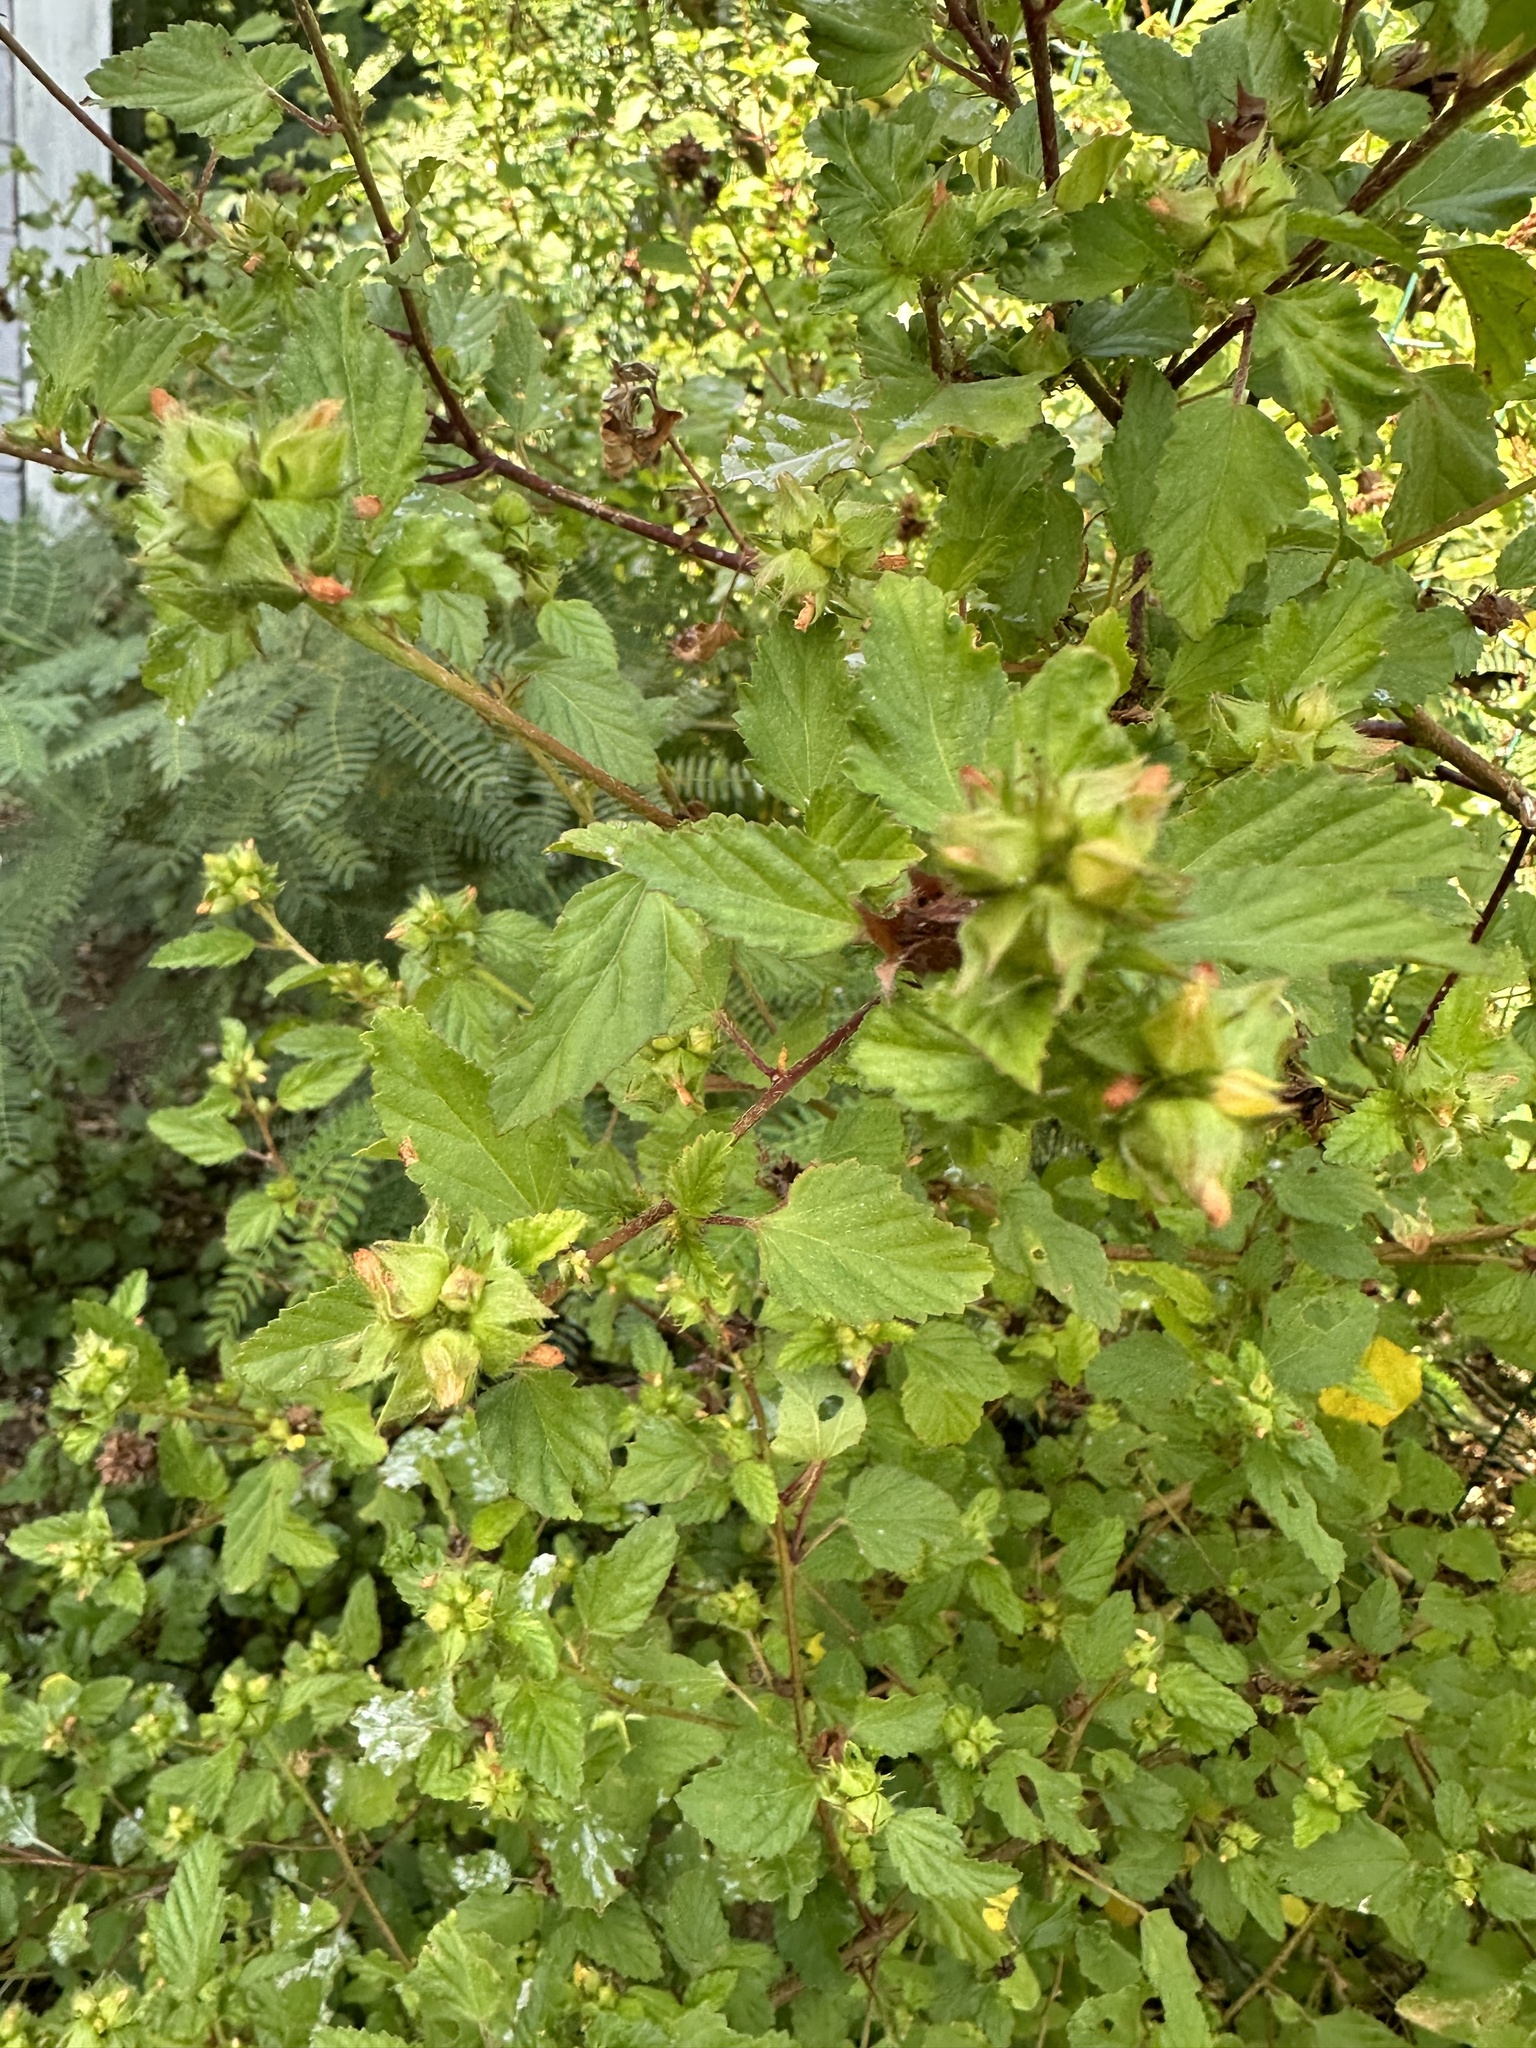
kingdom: Plantae
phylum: Tracheophyta
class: Magnoliopsida
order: Malvales
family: Malvaceae
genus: Malvastrum
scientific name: Malvastrum coromandelianum
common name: Threelobe false mallow
